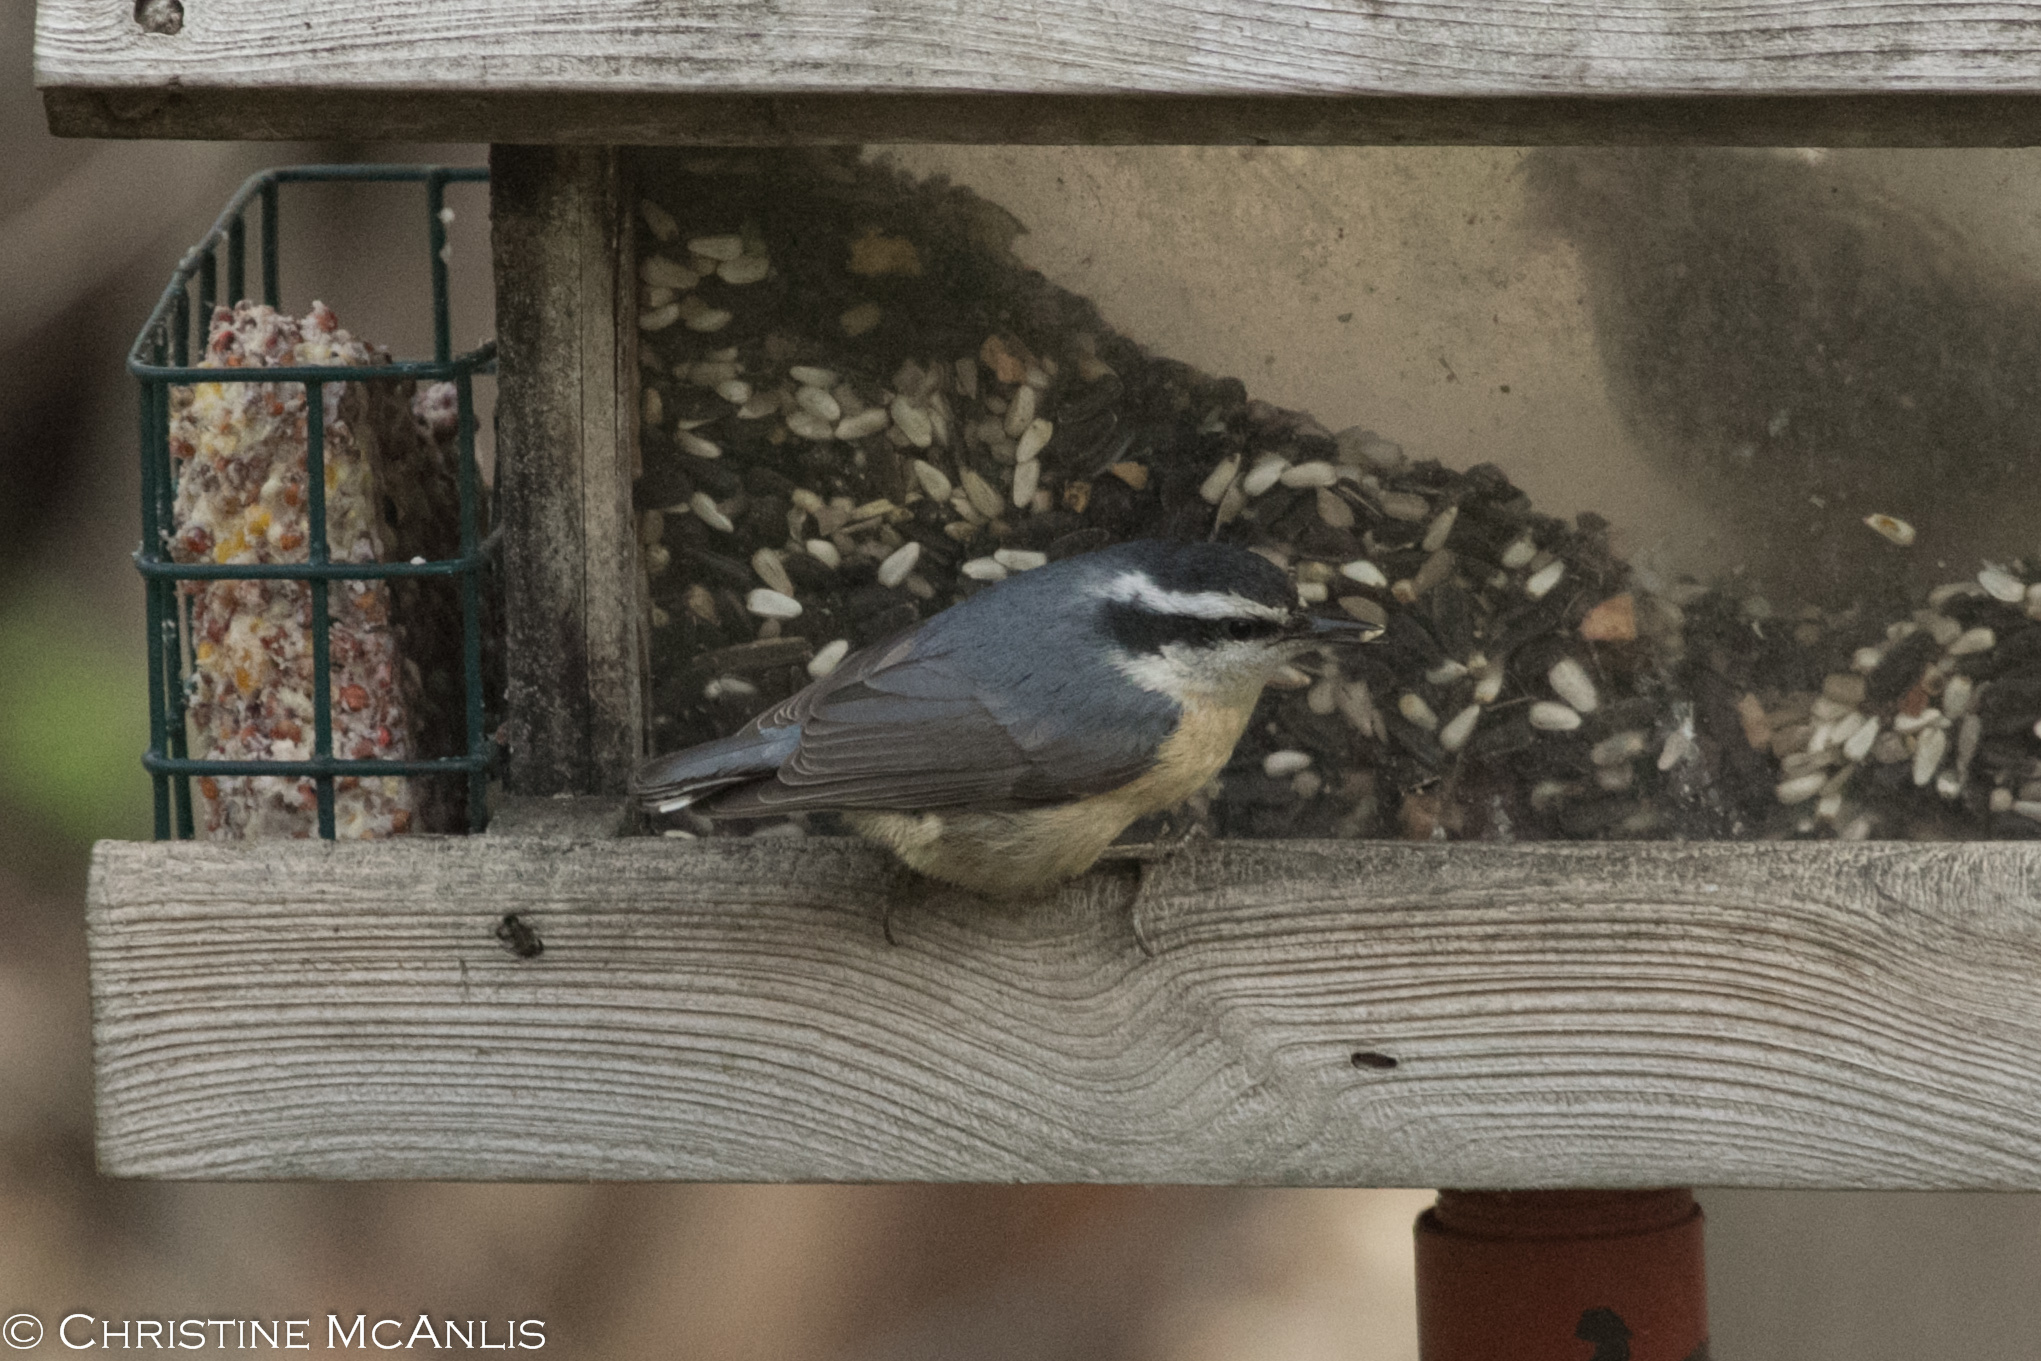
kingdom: Animalia
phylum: Chordata
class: Aves
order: Passeriformes
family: Sittidae
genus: Sitta
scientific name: Sitta canadensis
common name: Red-breasted nuthatch
